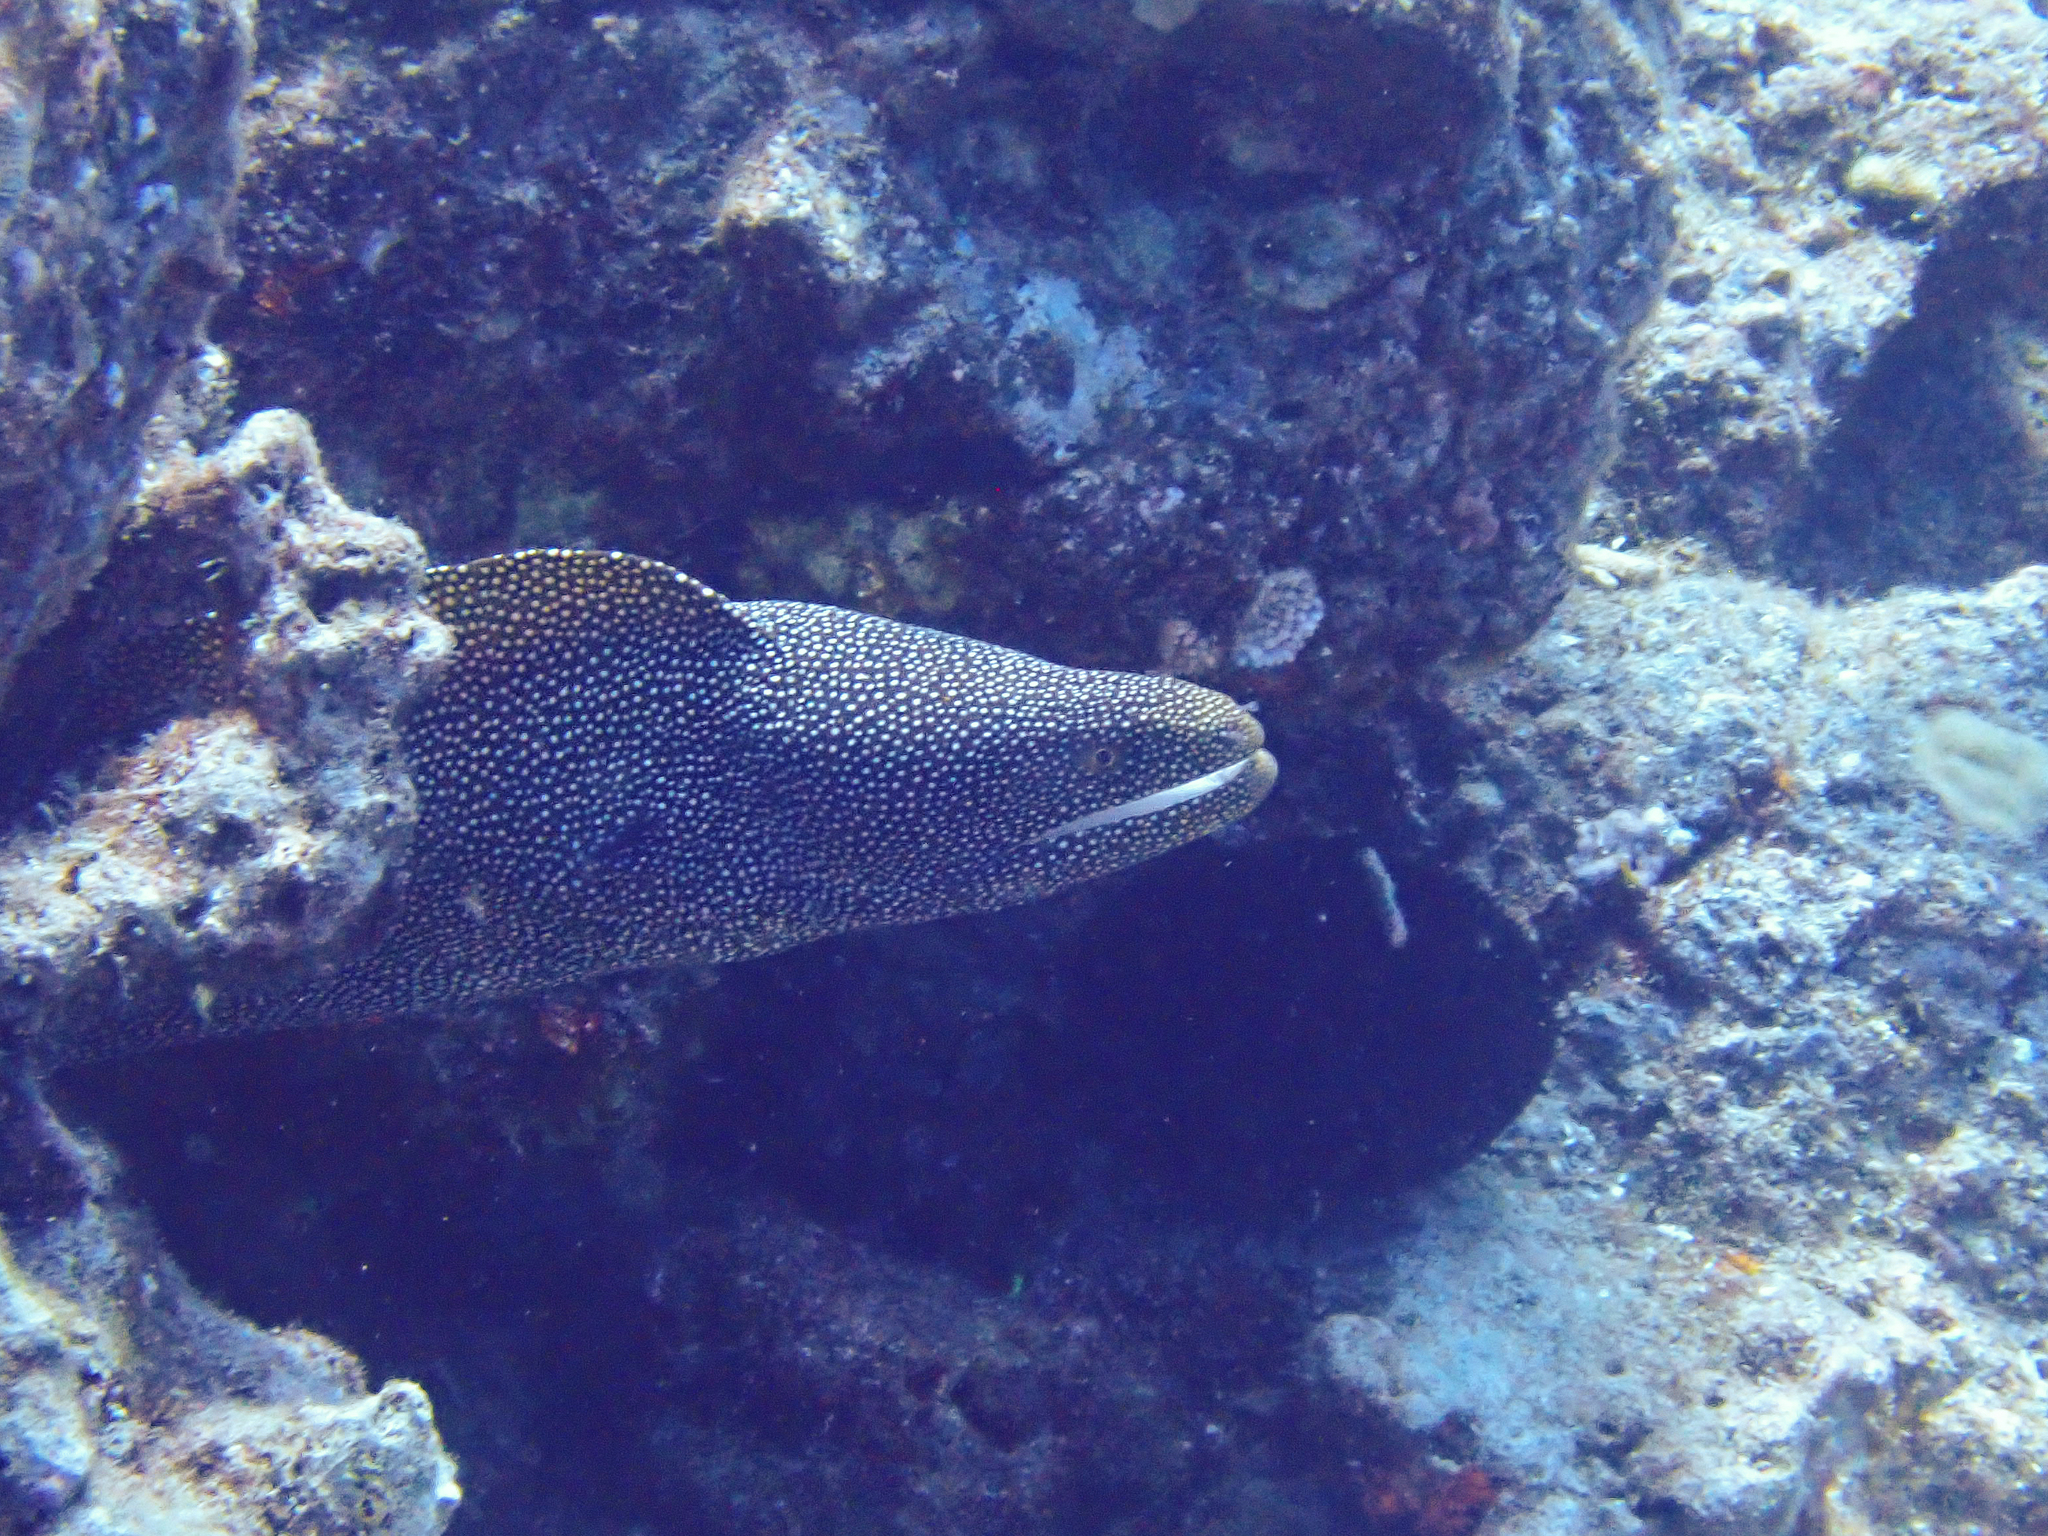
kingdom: Animalia
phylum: Chordata
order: Anguilliformes
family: Muraenidae
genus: Gymnothorax
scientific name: Gymnothorax meleagris
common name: Guineafowl moray
